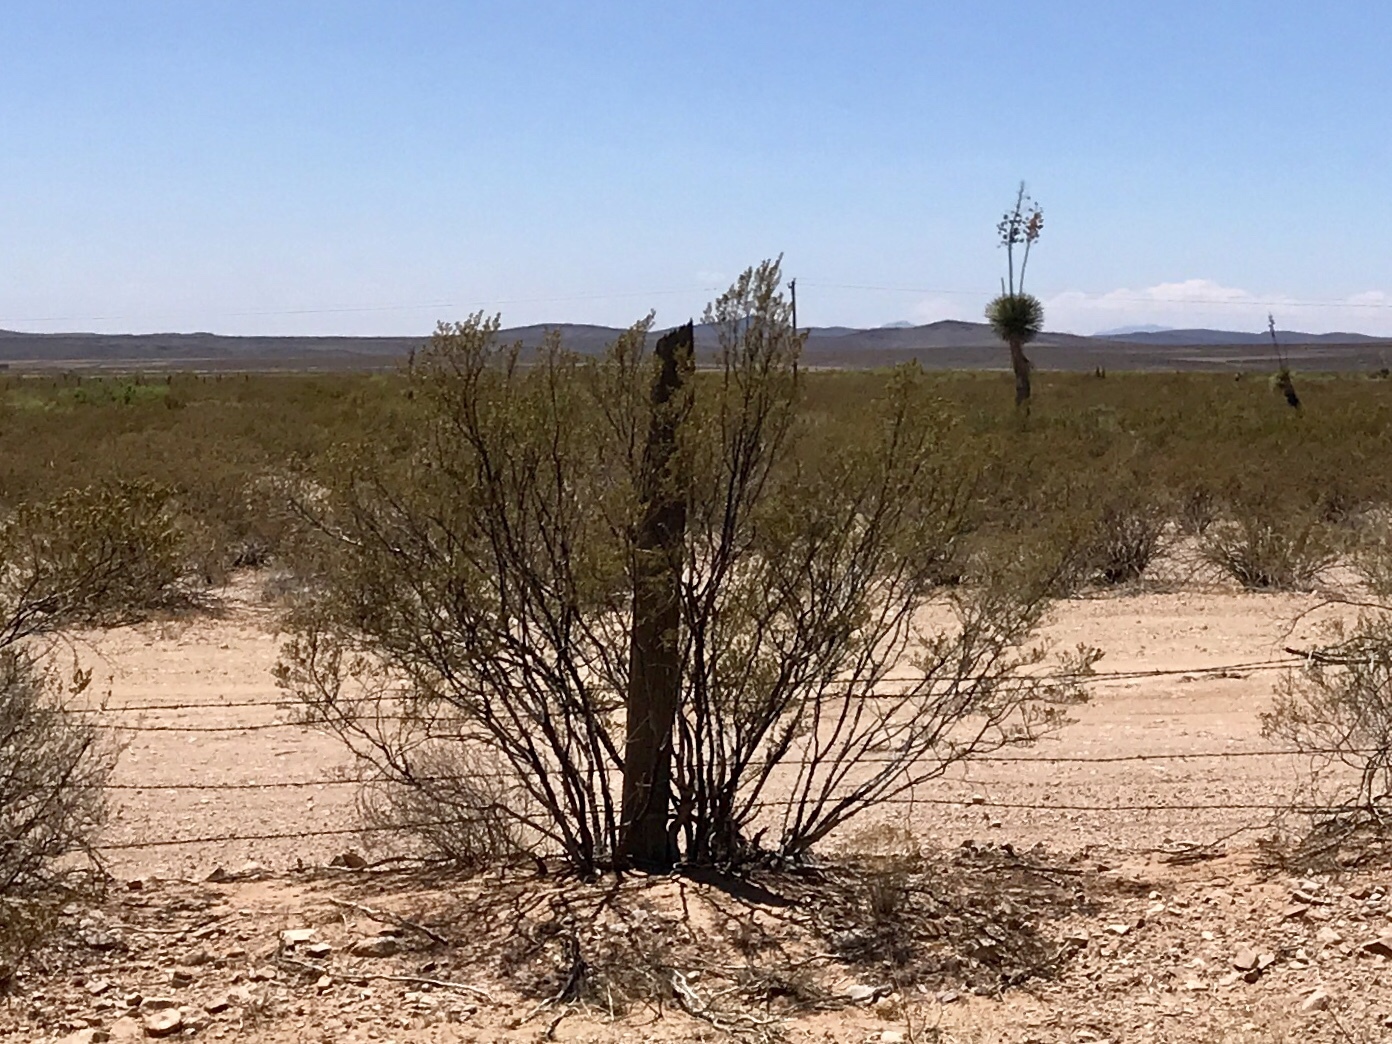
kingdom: Plantae
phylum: Tracheophyta
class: Magnoliopsida
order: Zygophyllales
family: Zygophyllaceae
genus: Larrea
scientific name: Larrea tridentata
